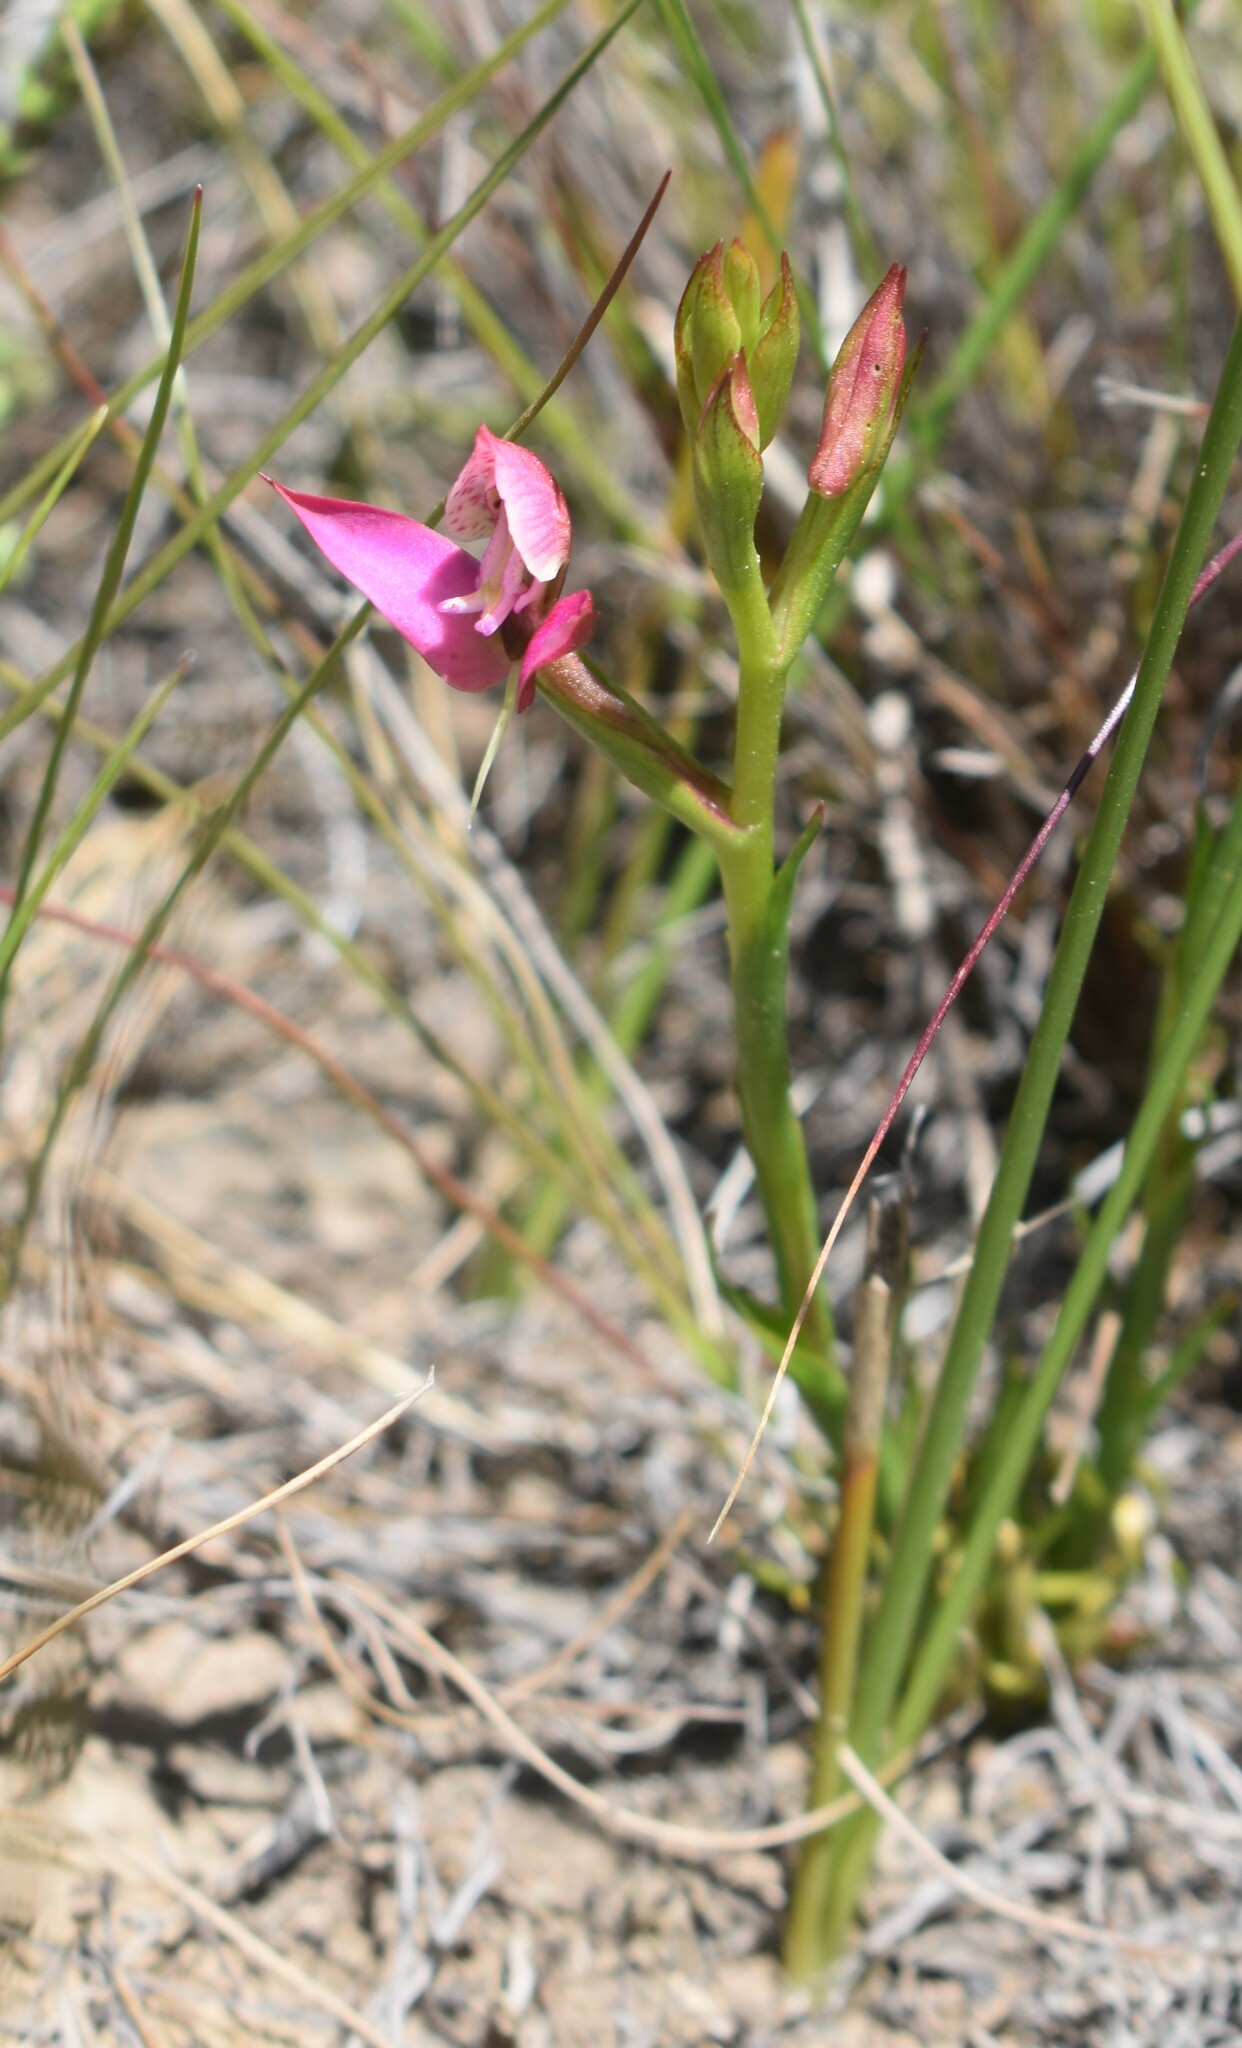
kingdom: Plantae
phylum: Tracheophyta
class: Liliopsida
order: Asparagales
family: Orchidaceae
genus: Disa
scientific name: Disa filicornis
